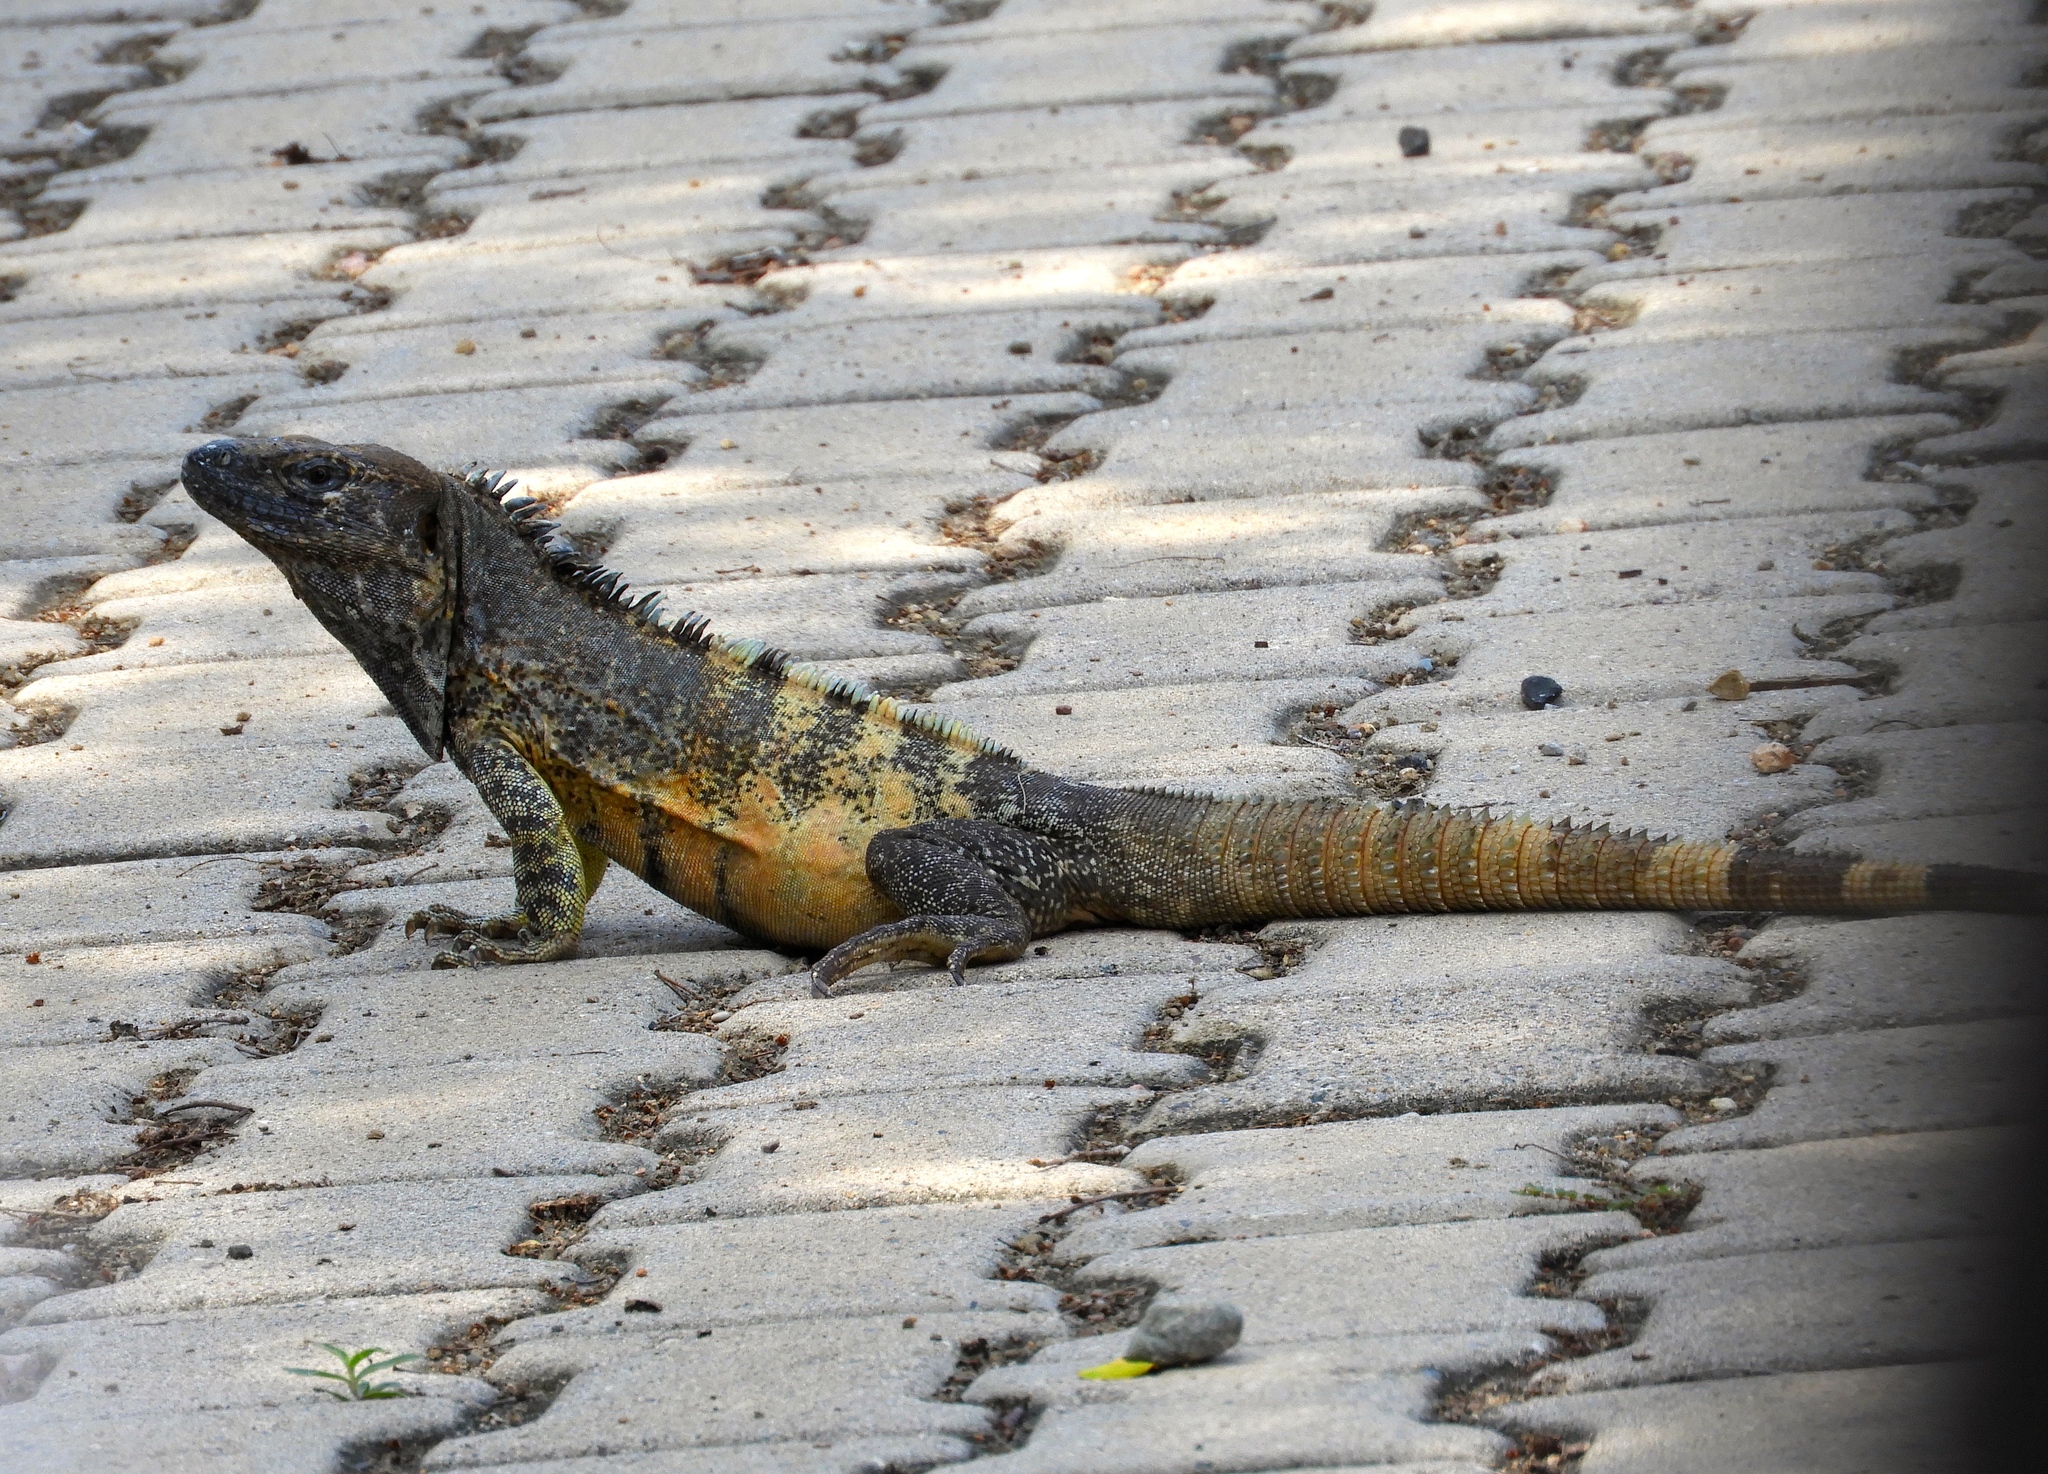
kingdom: Animalia
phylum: Chordata
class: Squamata
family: Iguanidae
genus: Ctenosaura
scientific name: Ctenosaura pectinata
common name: Guerreran spiny-tailed iguana
